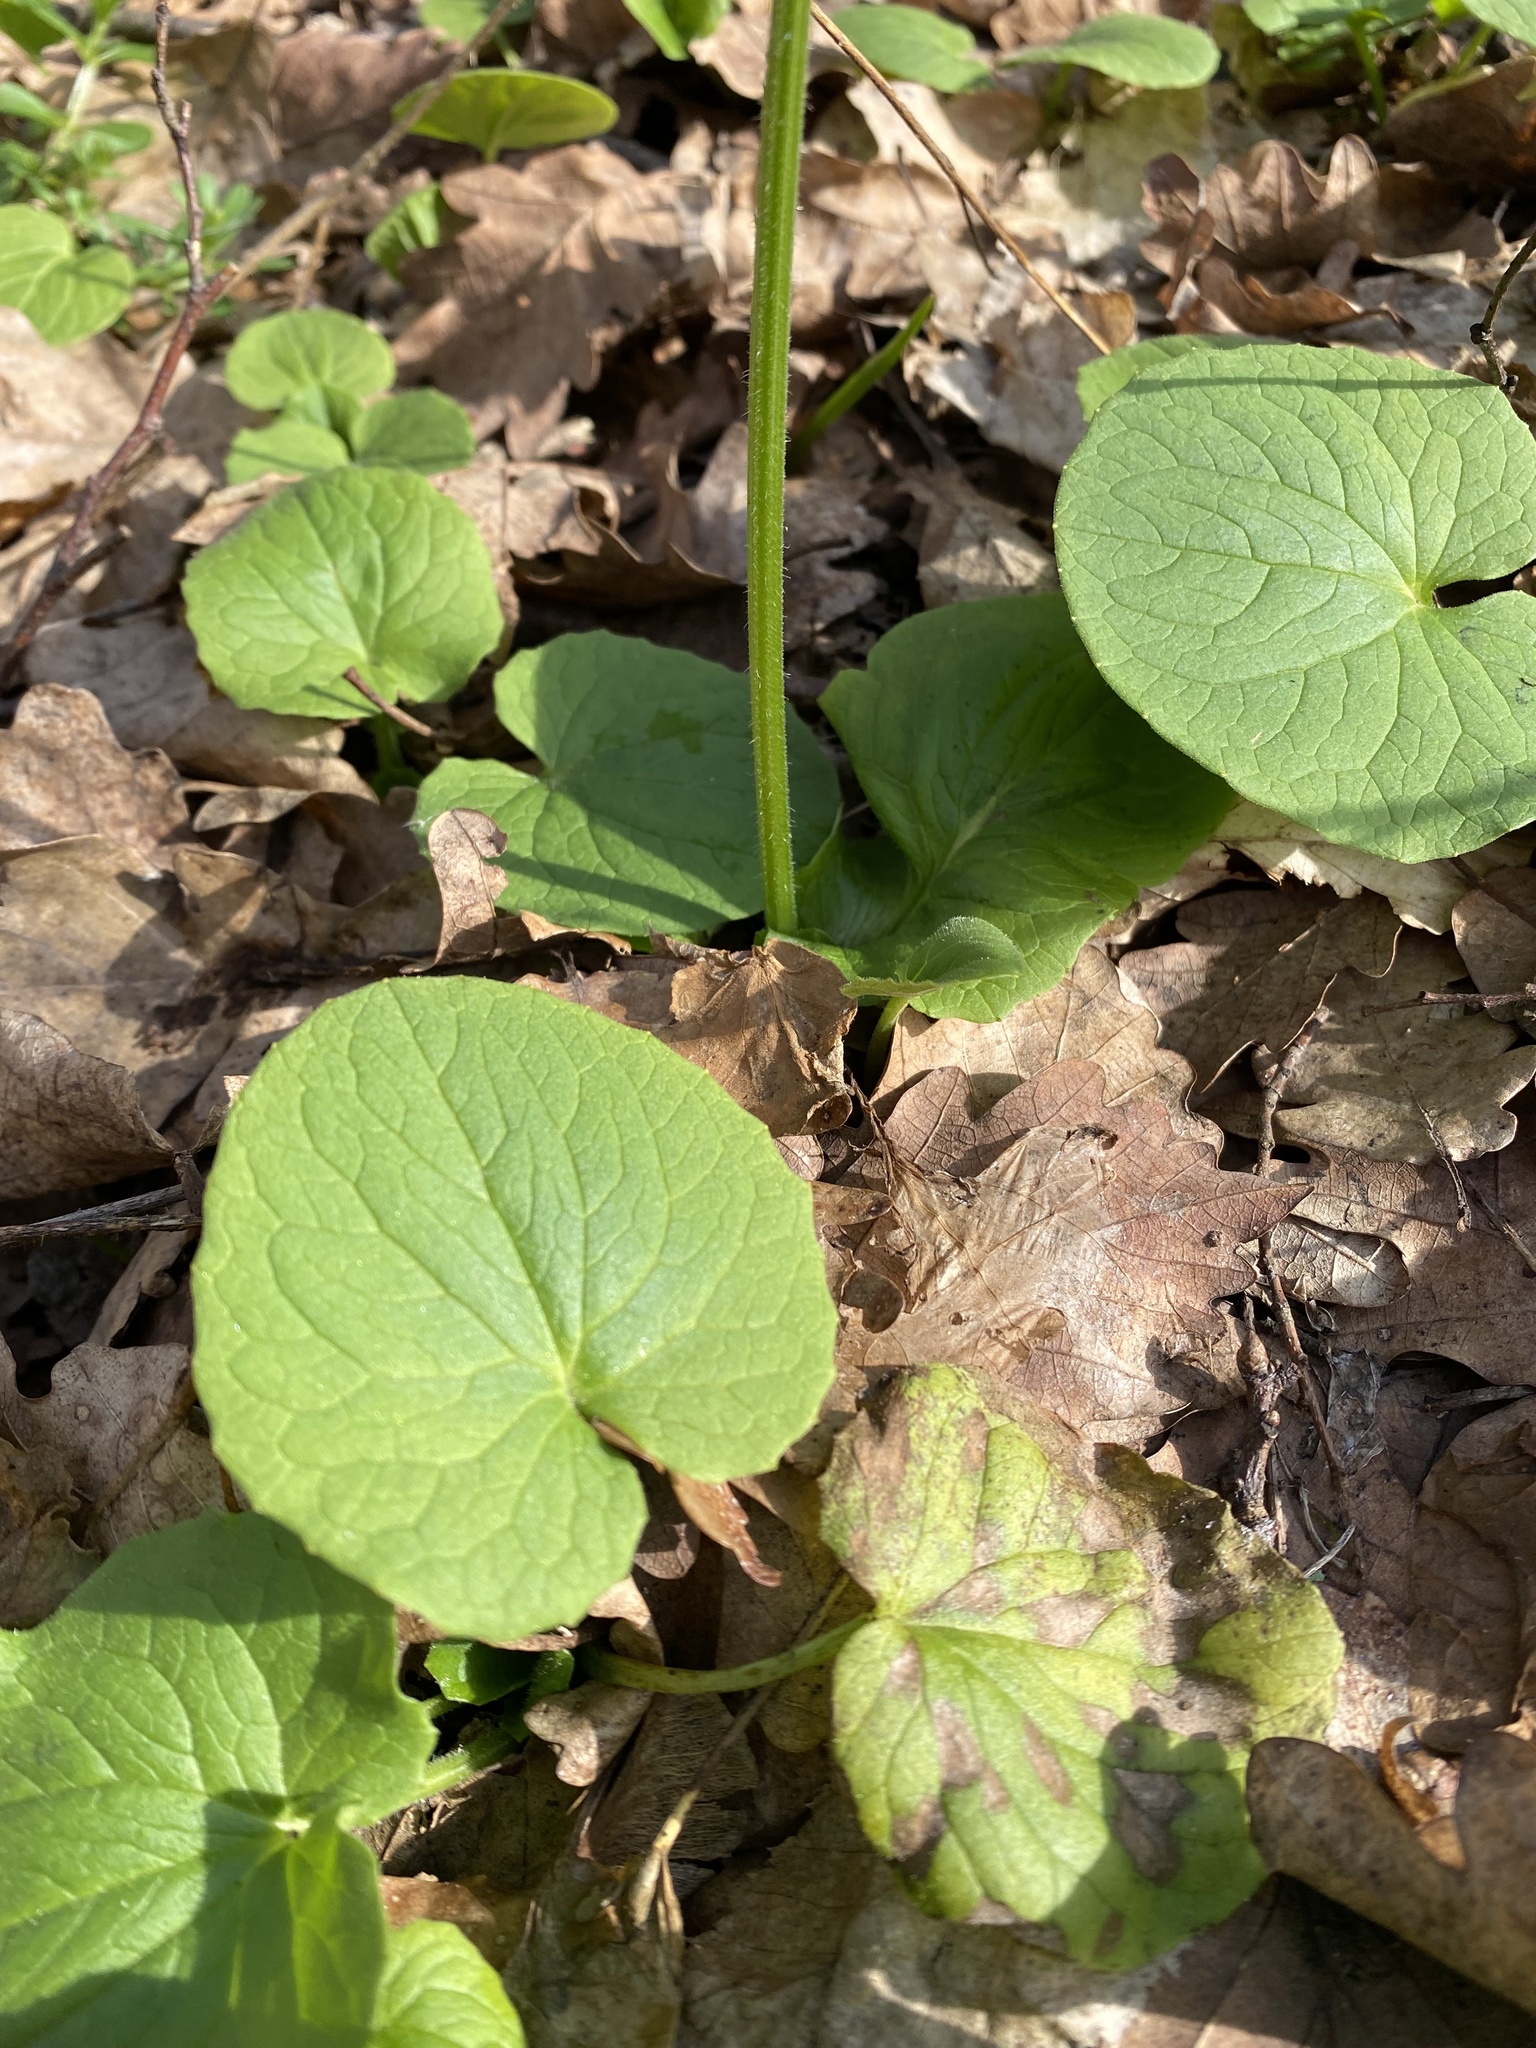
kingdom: Plantae
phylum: Tracheophyta
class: Magnoliopsida
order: Asterales
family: Asteraceae
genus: Doronicum
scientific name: Doronicum
